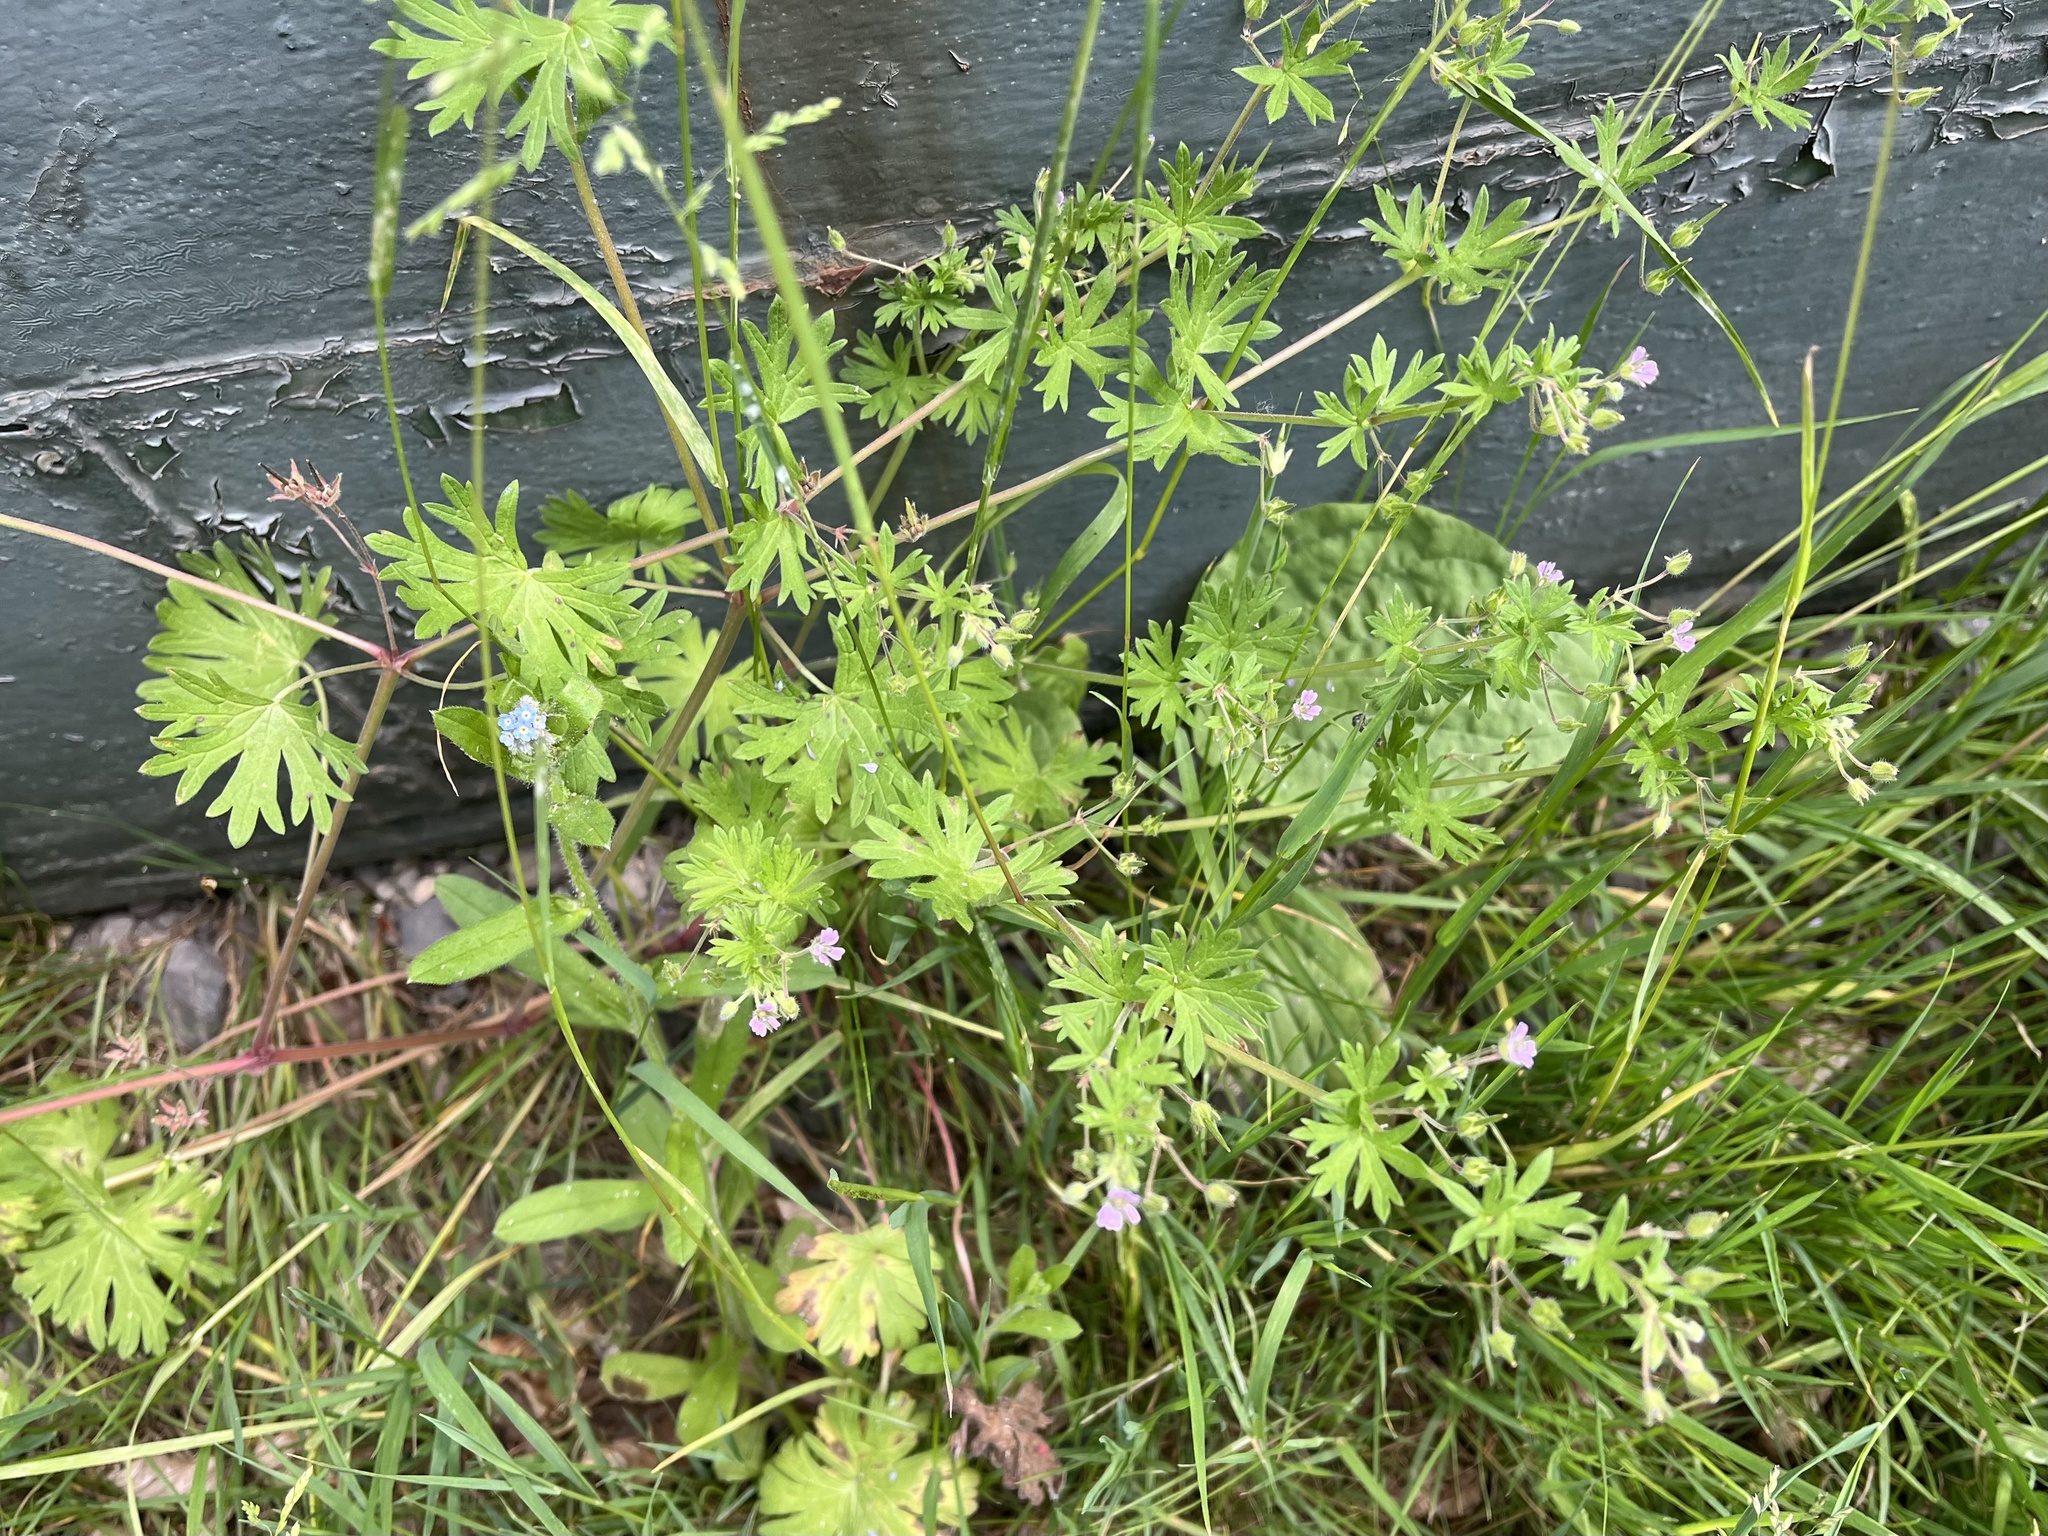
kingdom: Plantae
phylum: Tracheophyta
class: Magnoliopsida
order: Geraniales
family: Geraniaceae
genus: Geranium
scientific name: Geranium pusillum
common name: Small geranium
